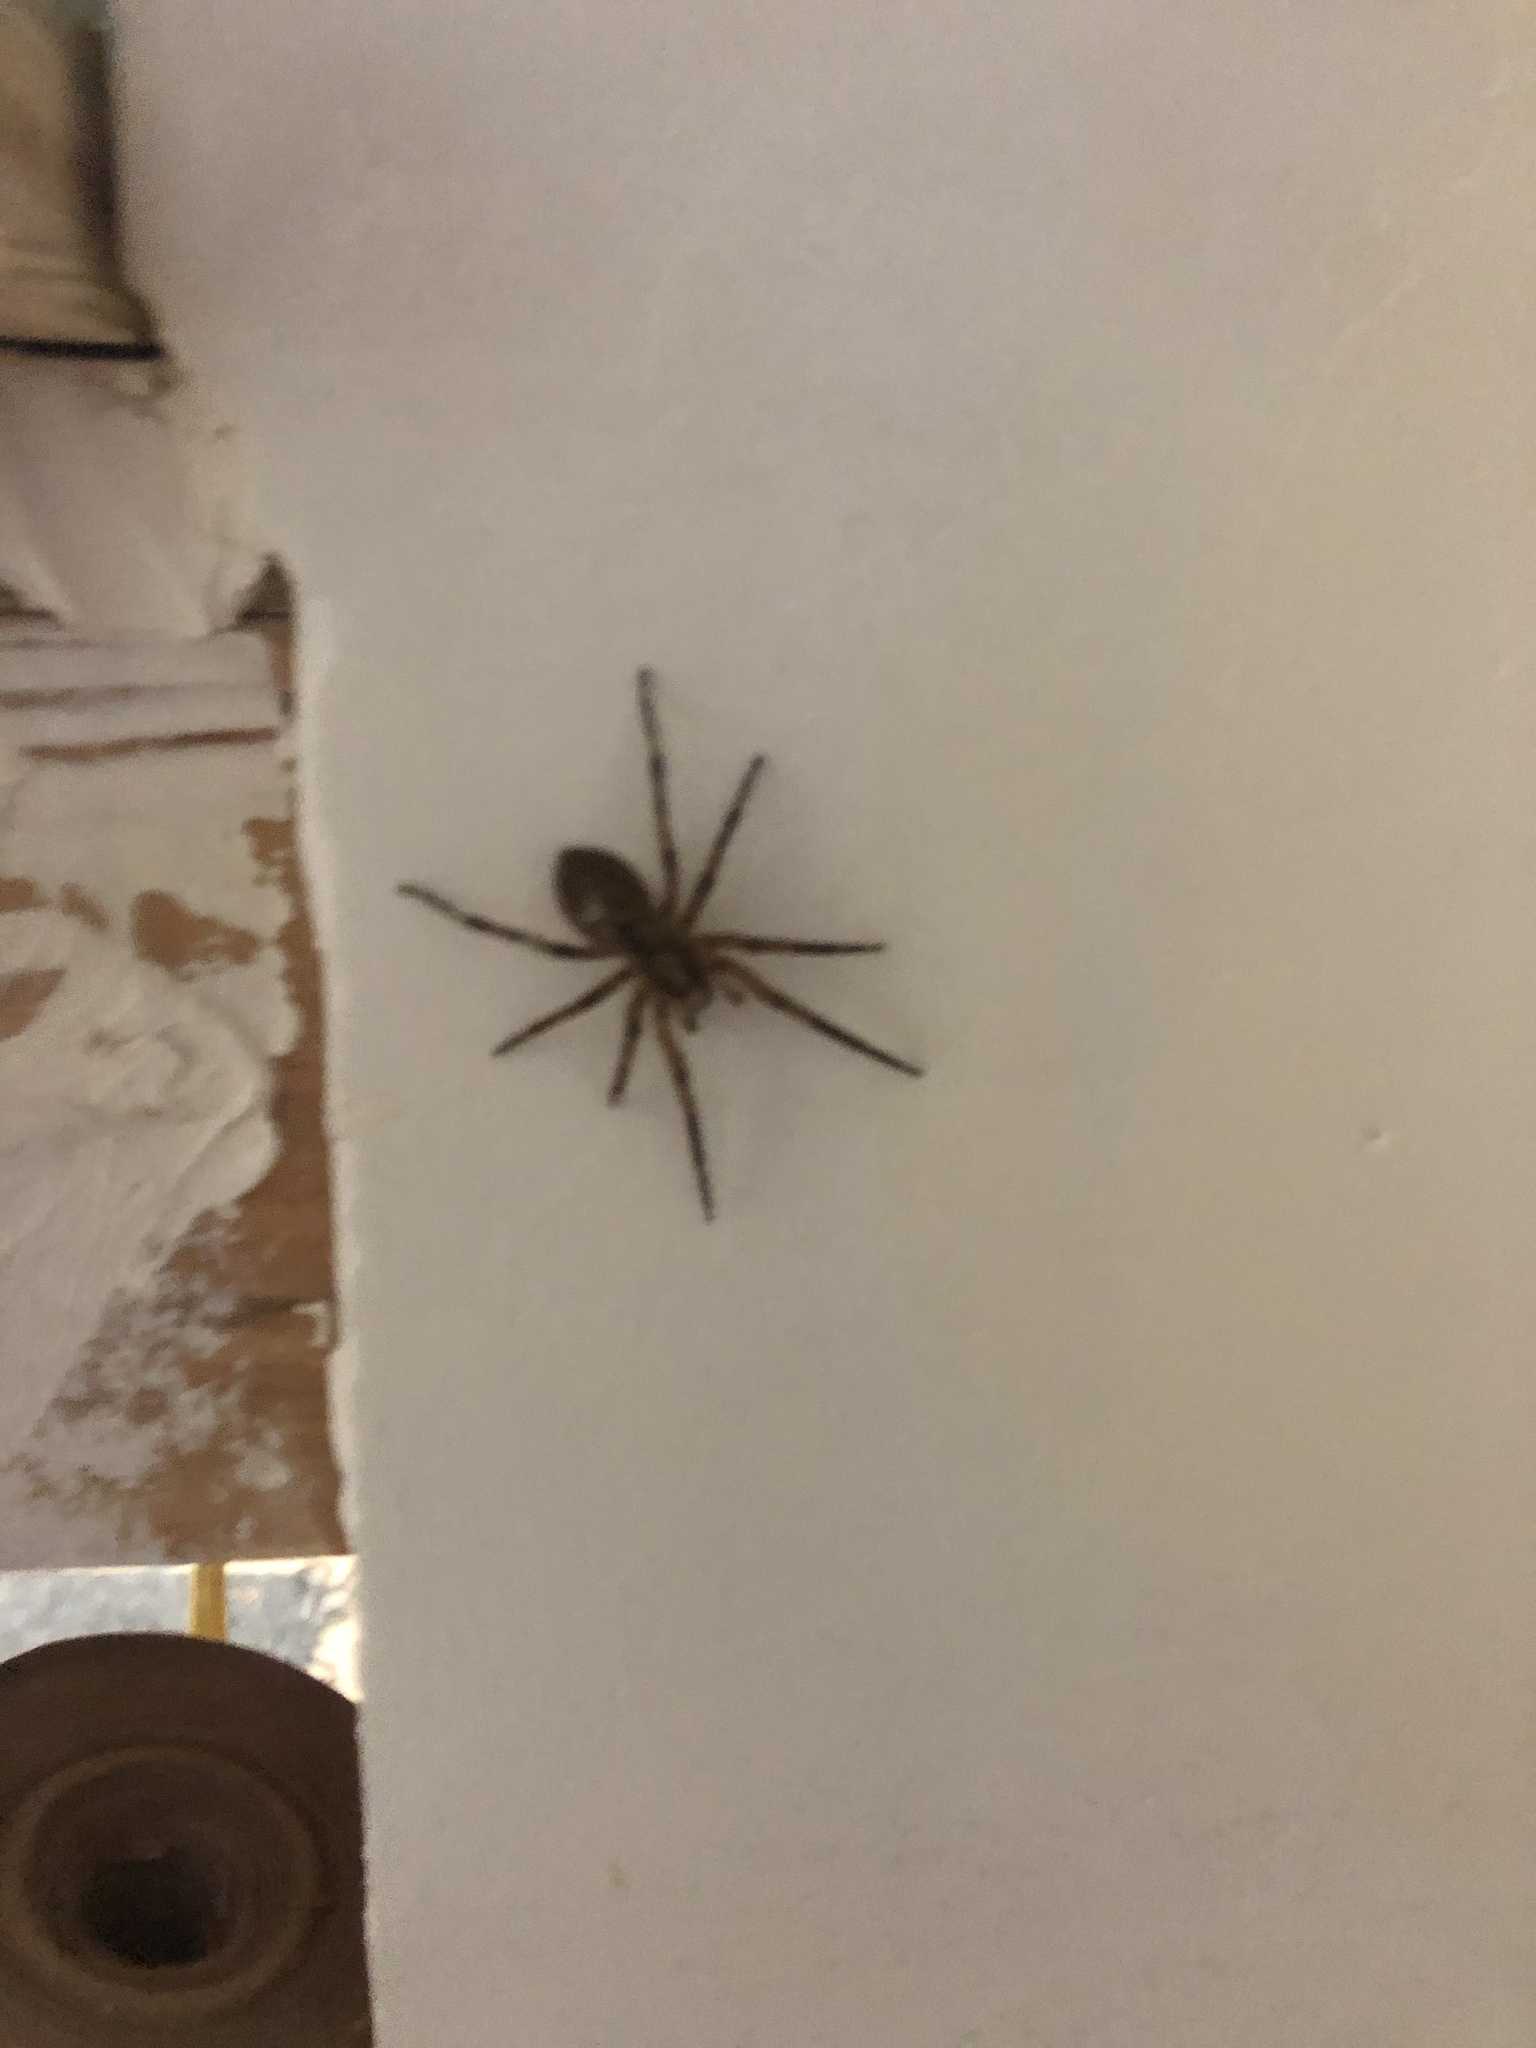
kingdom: Animalia
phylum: Arthropoda
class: Arachnida
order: Araneae
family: Zoropsidae
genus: Zoropsis
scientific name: Zoropsis spinimana
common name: Zoropsid spider
